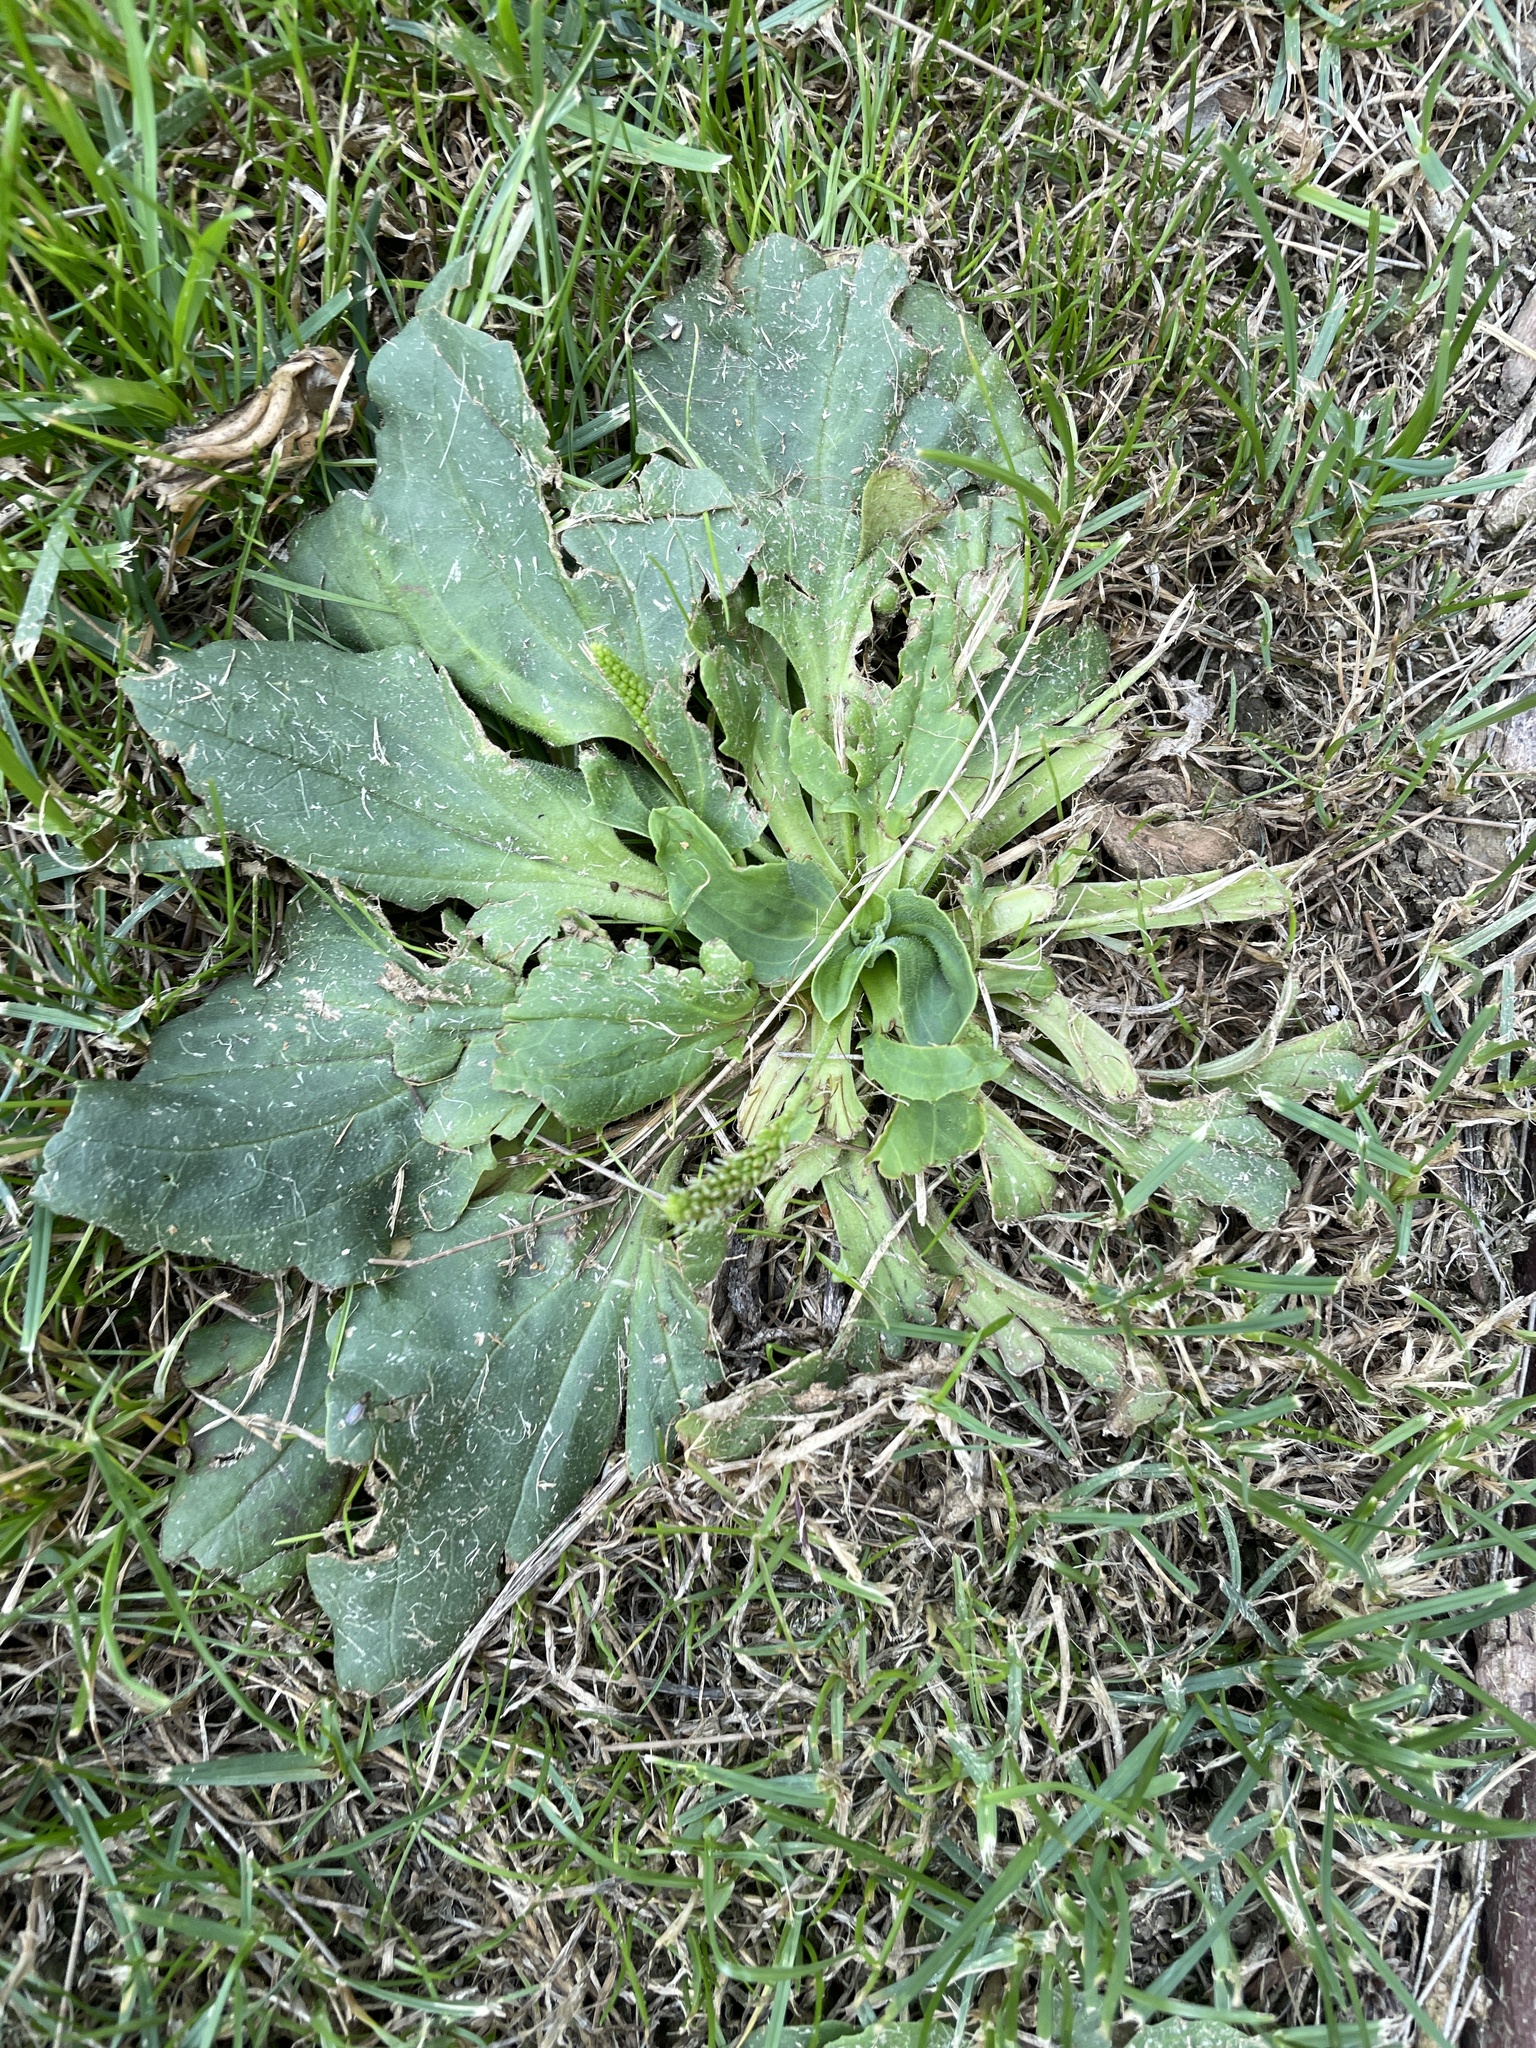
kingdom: Plantae
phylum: Tracheophyta
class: Magnoliopsida
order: Lamiales
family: Plantaginaceae
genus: Plantago
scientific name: Plantago major
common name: Common plantain
